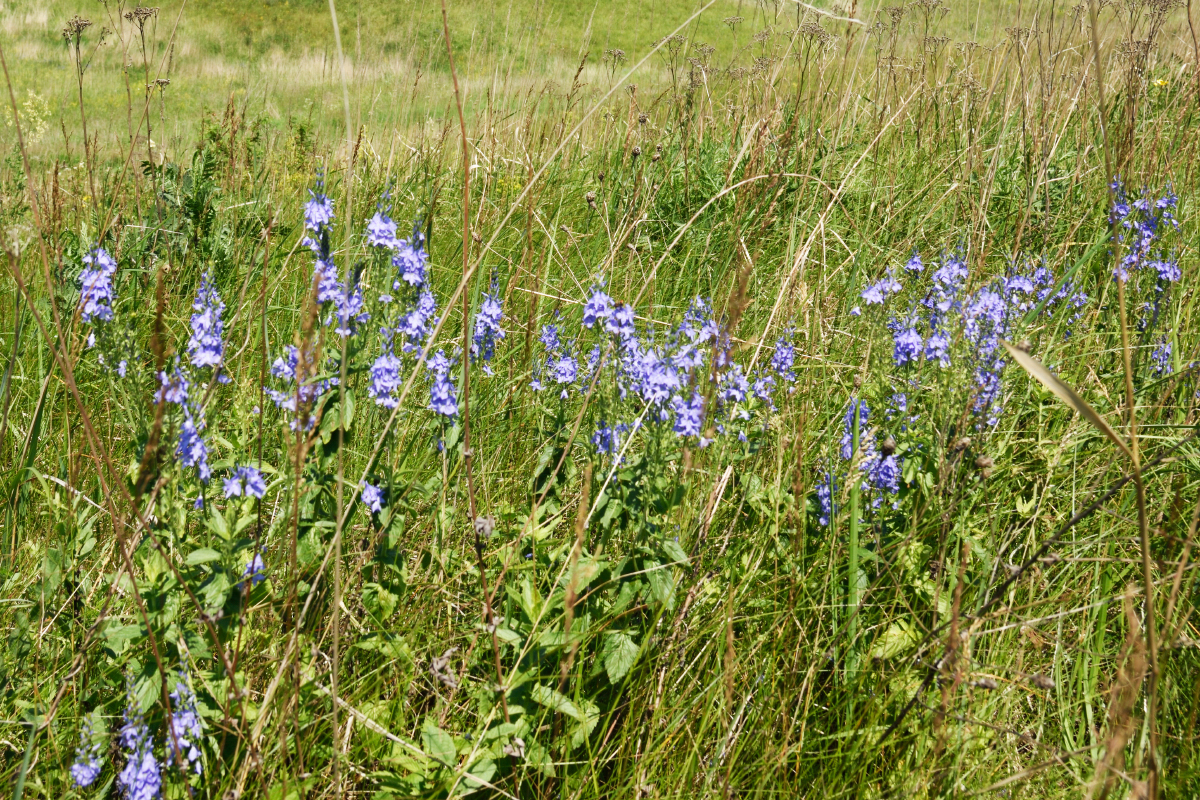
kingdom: Plantae
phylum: Tracheophyta
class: Magnoliopsida
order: Lamiales
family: Plantaginaceae
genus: Veronica
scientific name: Veronica teucrium
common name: Large speedwell
